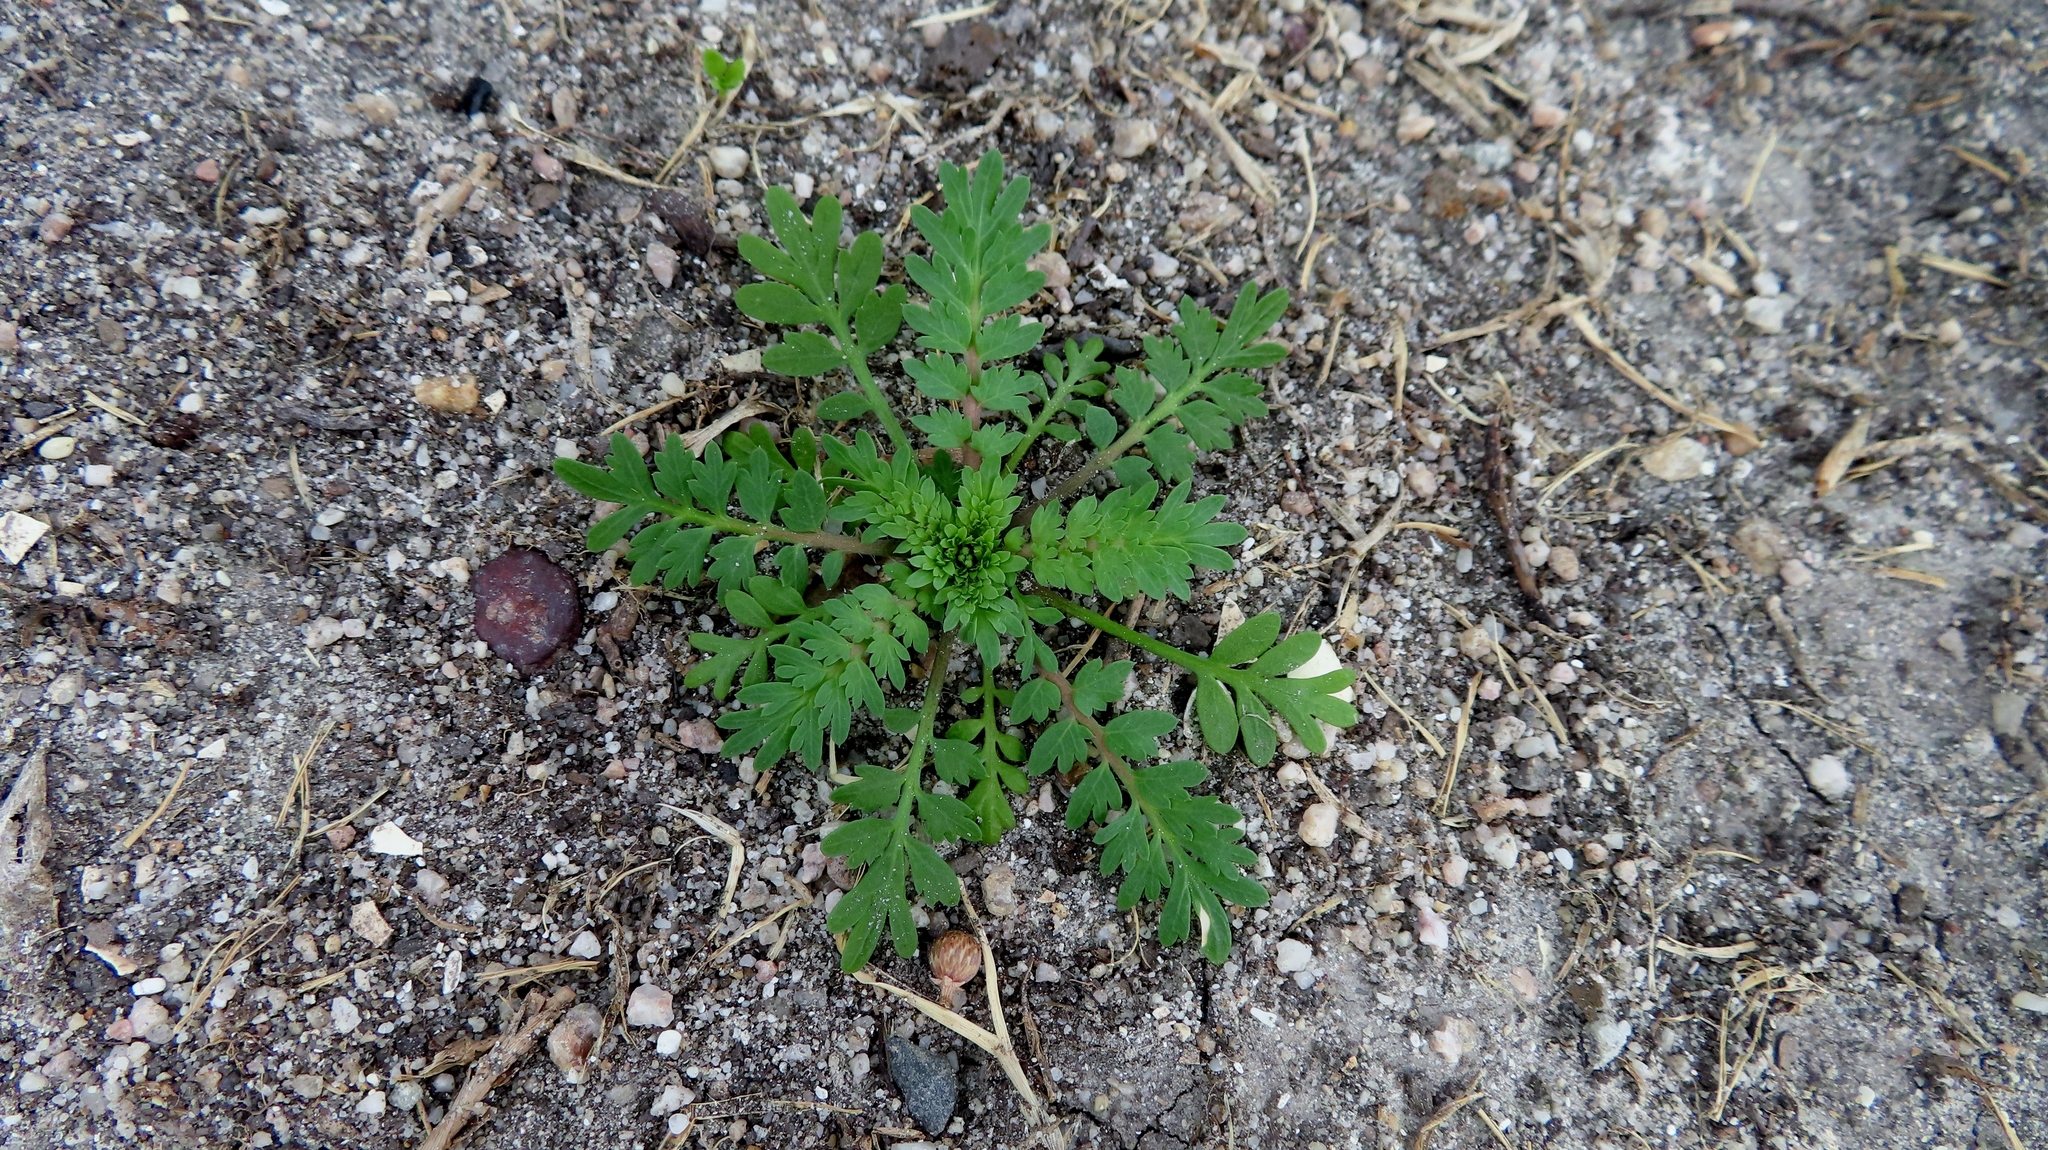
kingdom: Plantae
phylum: Tracheophyta
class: Magnoliopsida
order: Brassicales
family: Brassicaceae
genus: Lepidium
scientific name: Lepidium didymum
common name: Lesser swinecress
